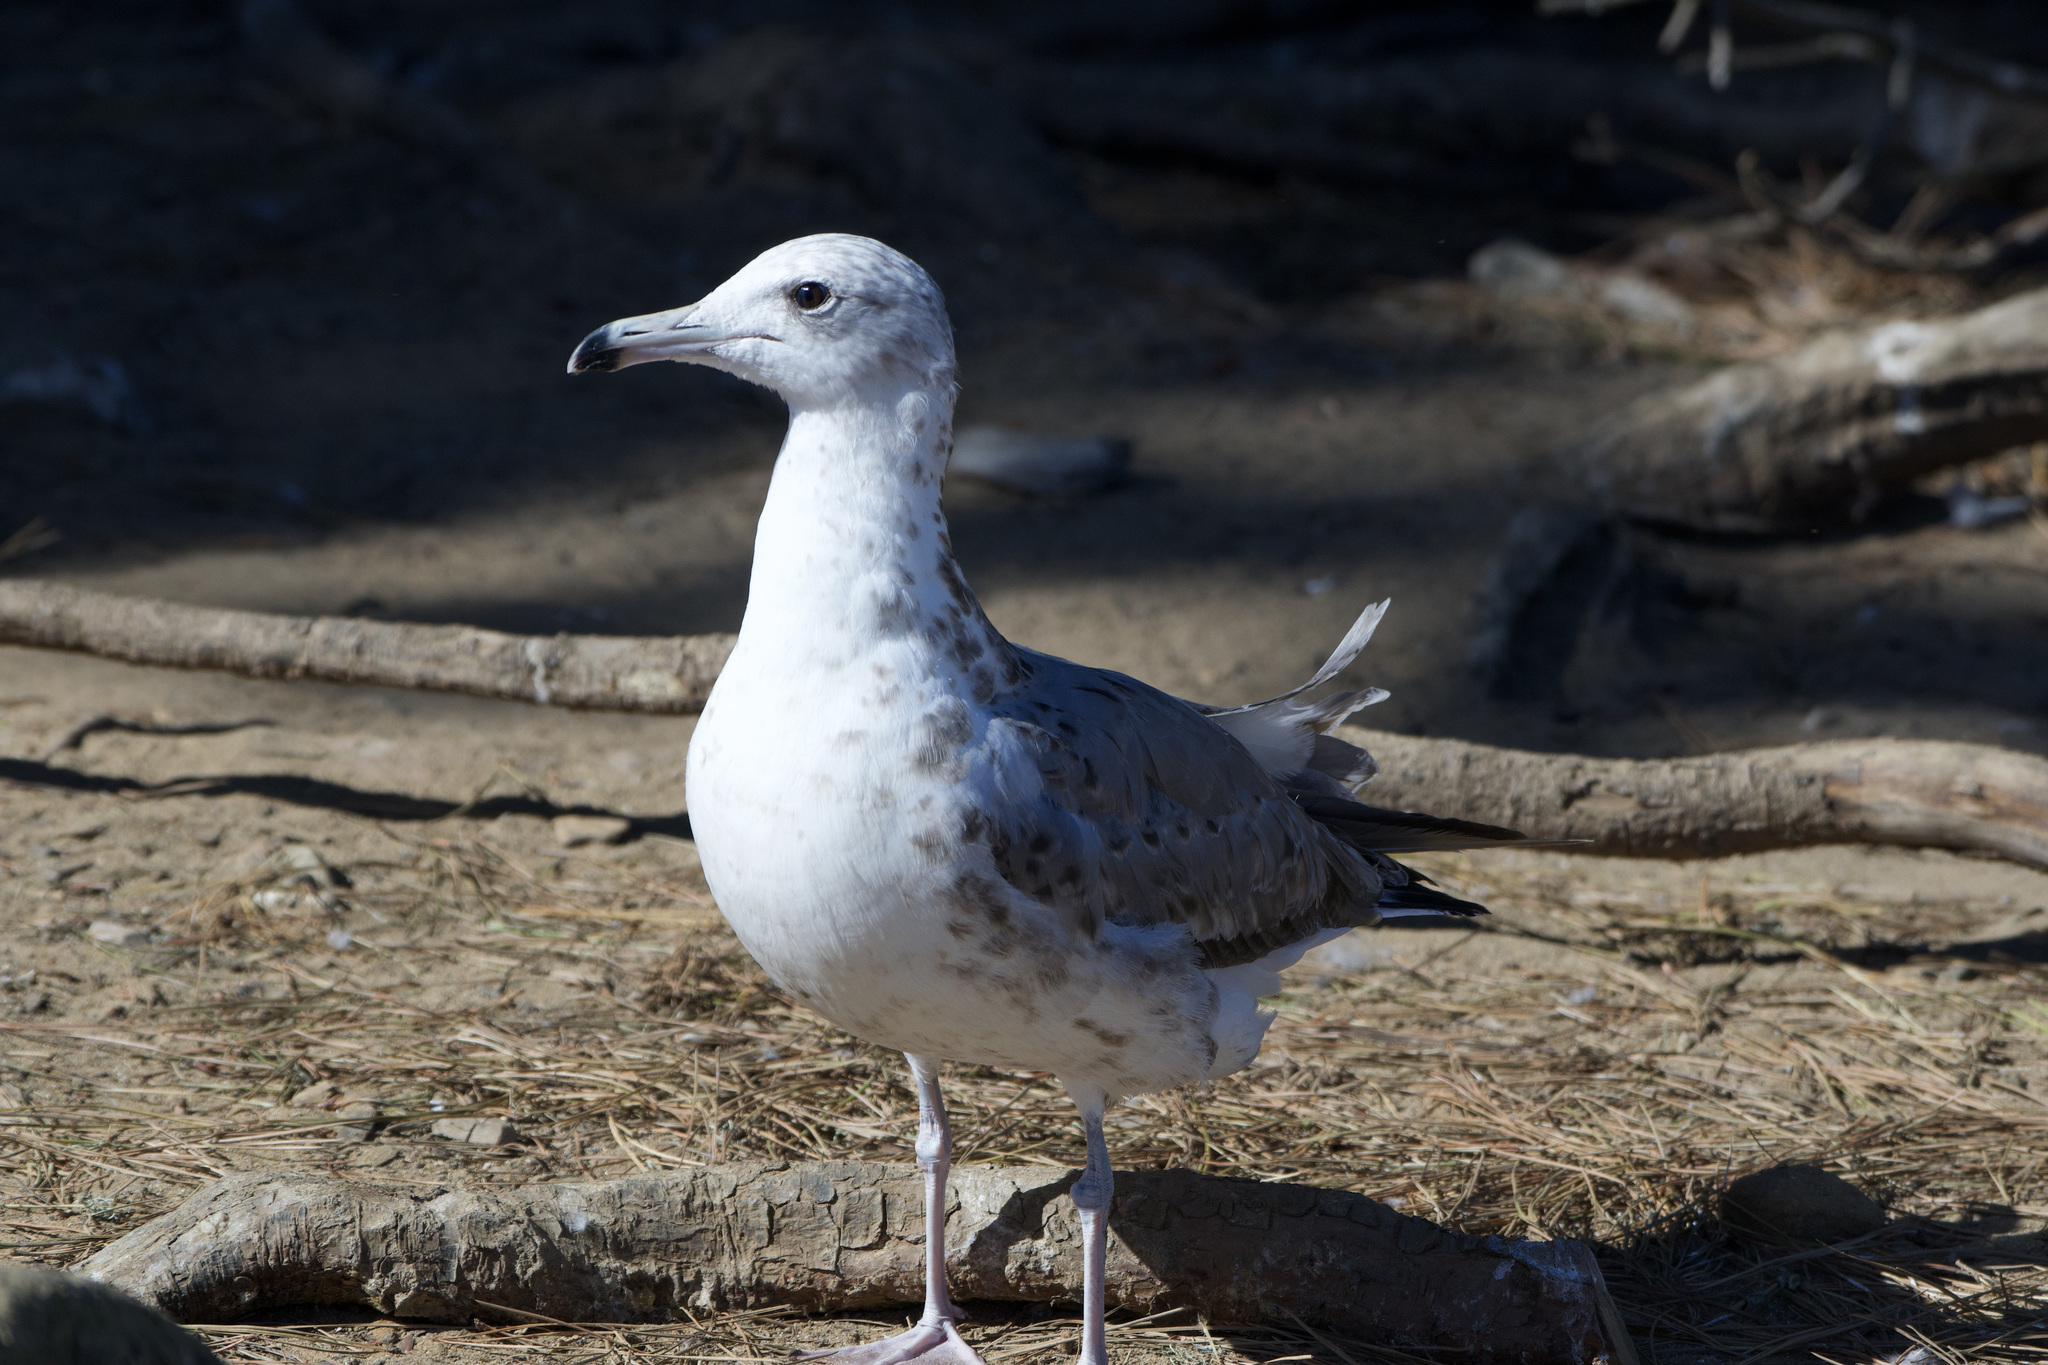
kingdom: Animalia
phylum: Chordata
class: Aves
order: Charadriiformes
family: Laridae
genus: Larus
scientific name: Larus californicus
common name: California gull
